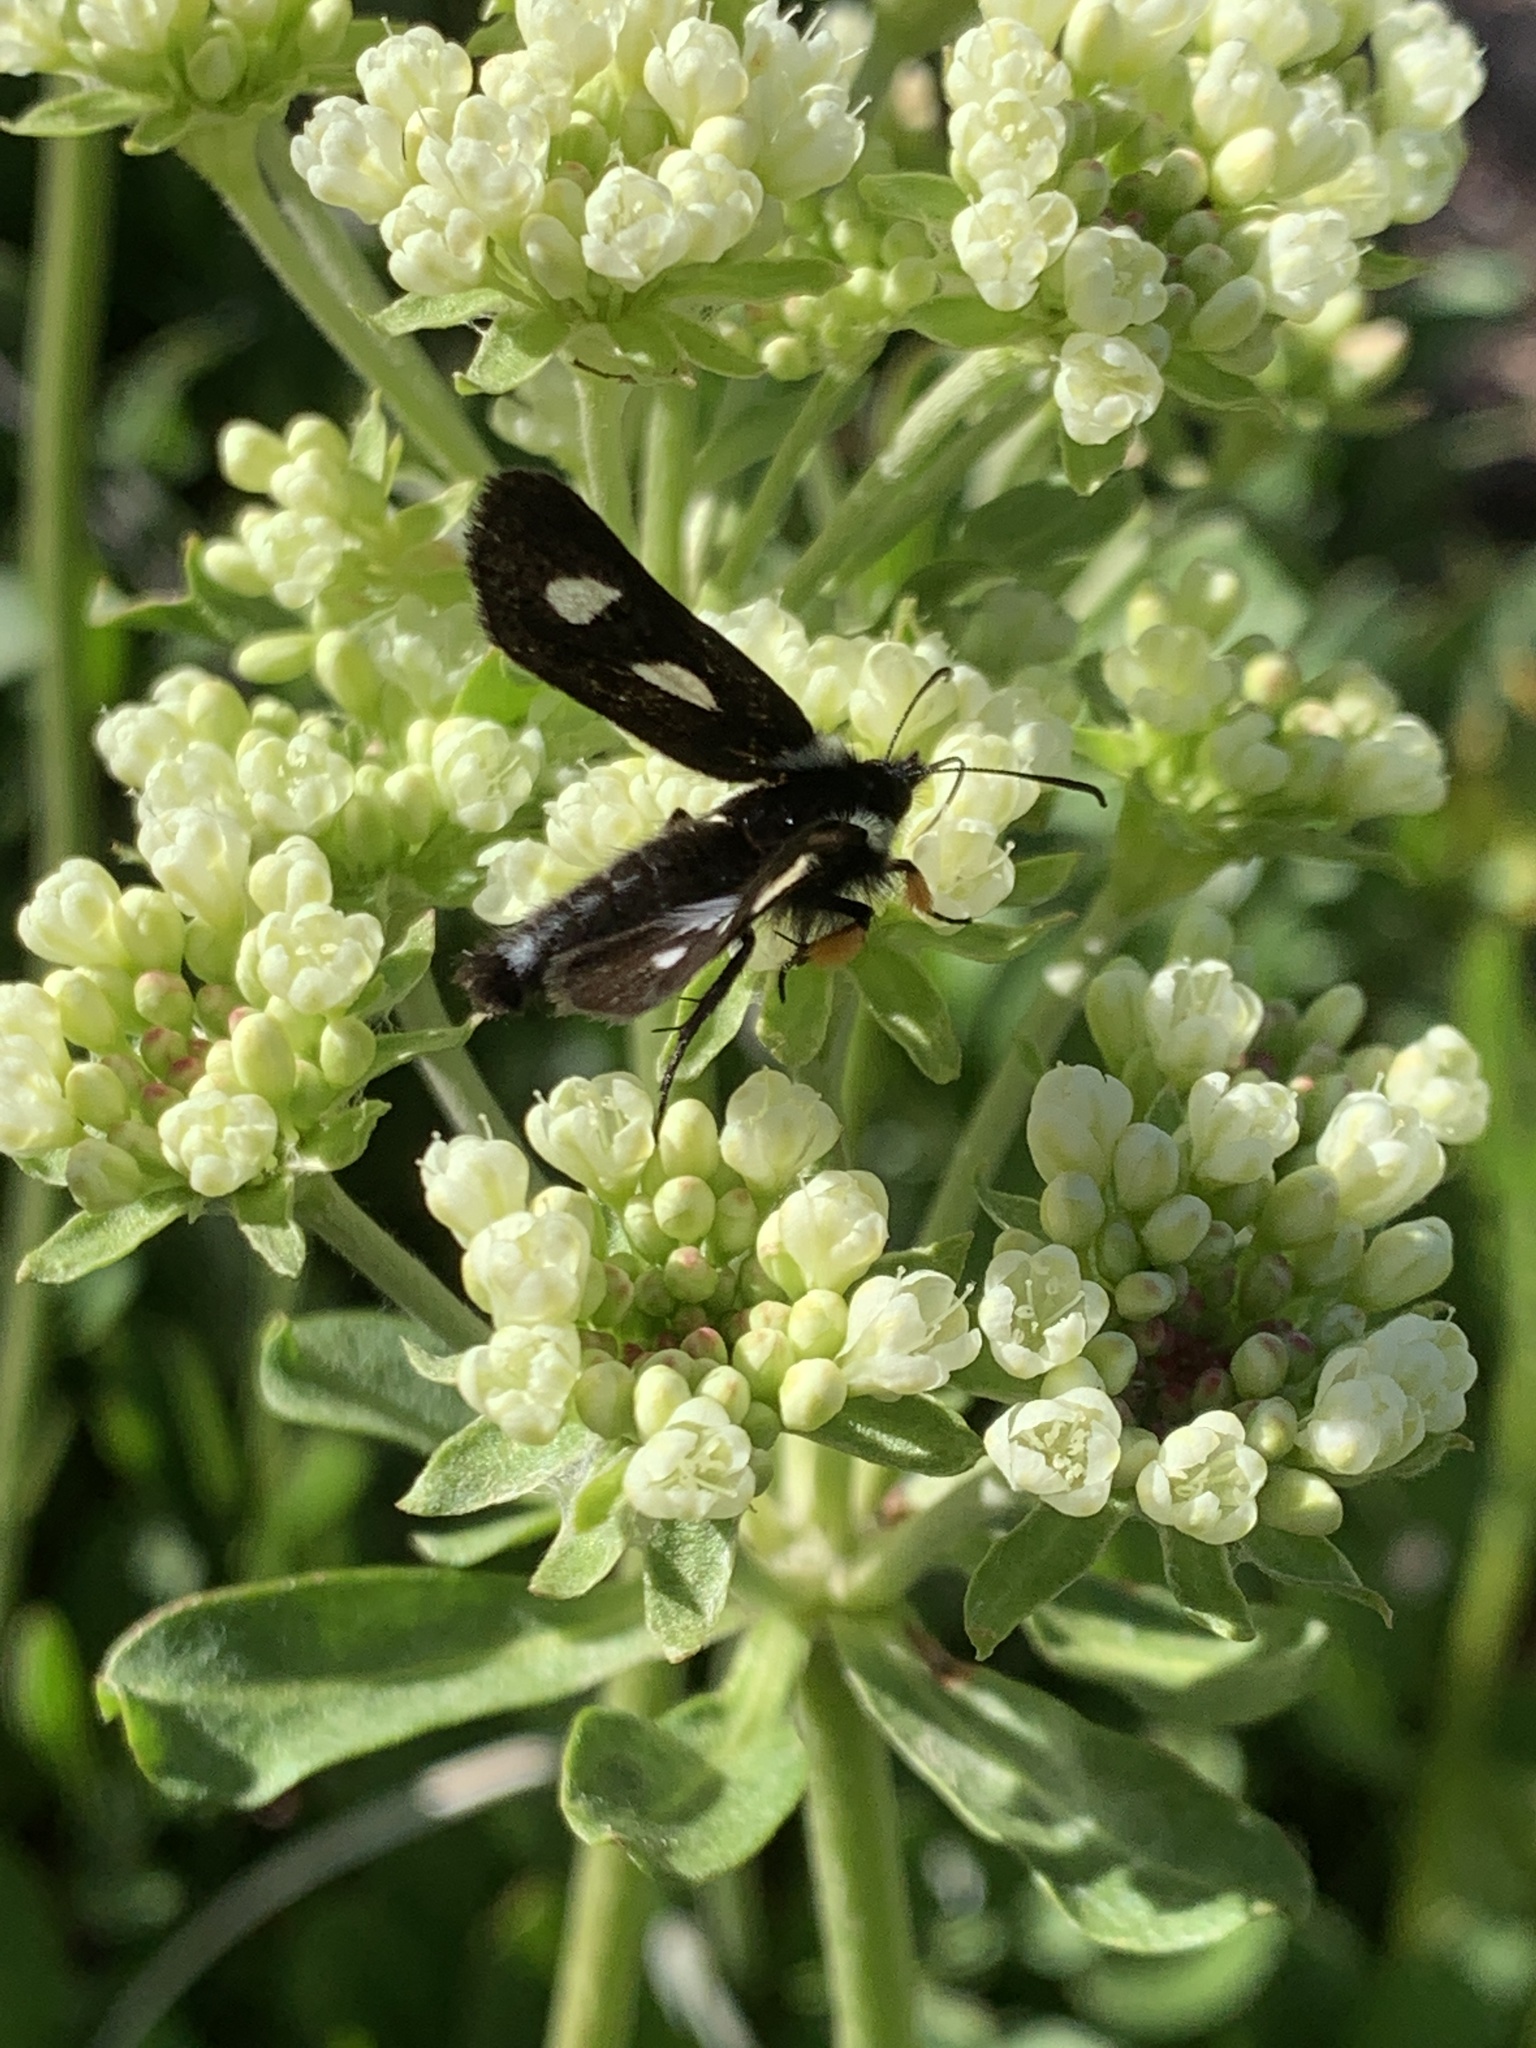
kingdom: Animalia
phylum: Arthropoda
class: Insecta
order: Lepidoptera
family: Noctuidae
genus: Alypia
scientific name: Alypia langtonii
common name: Fireweed caterpillar
